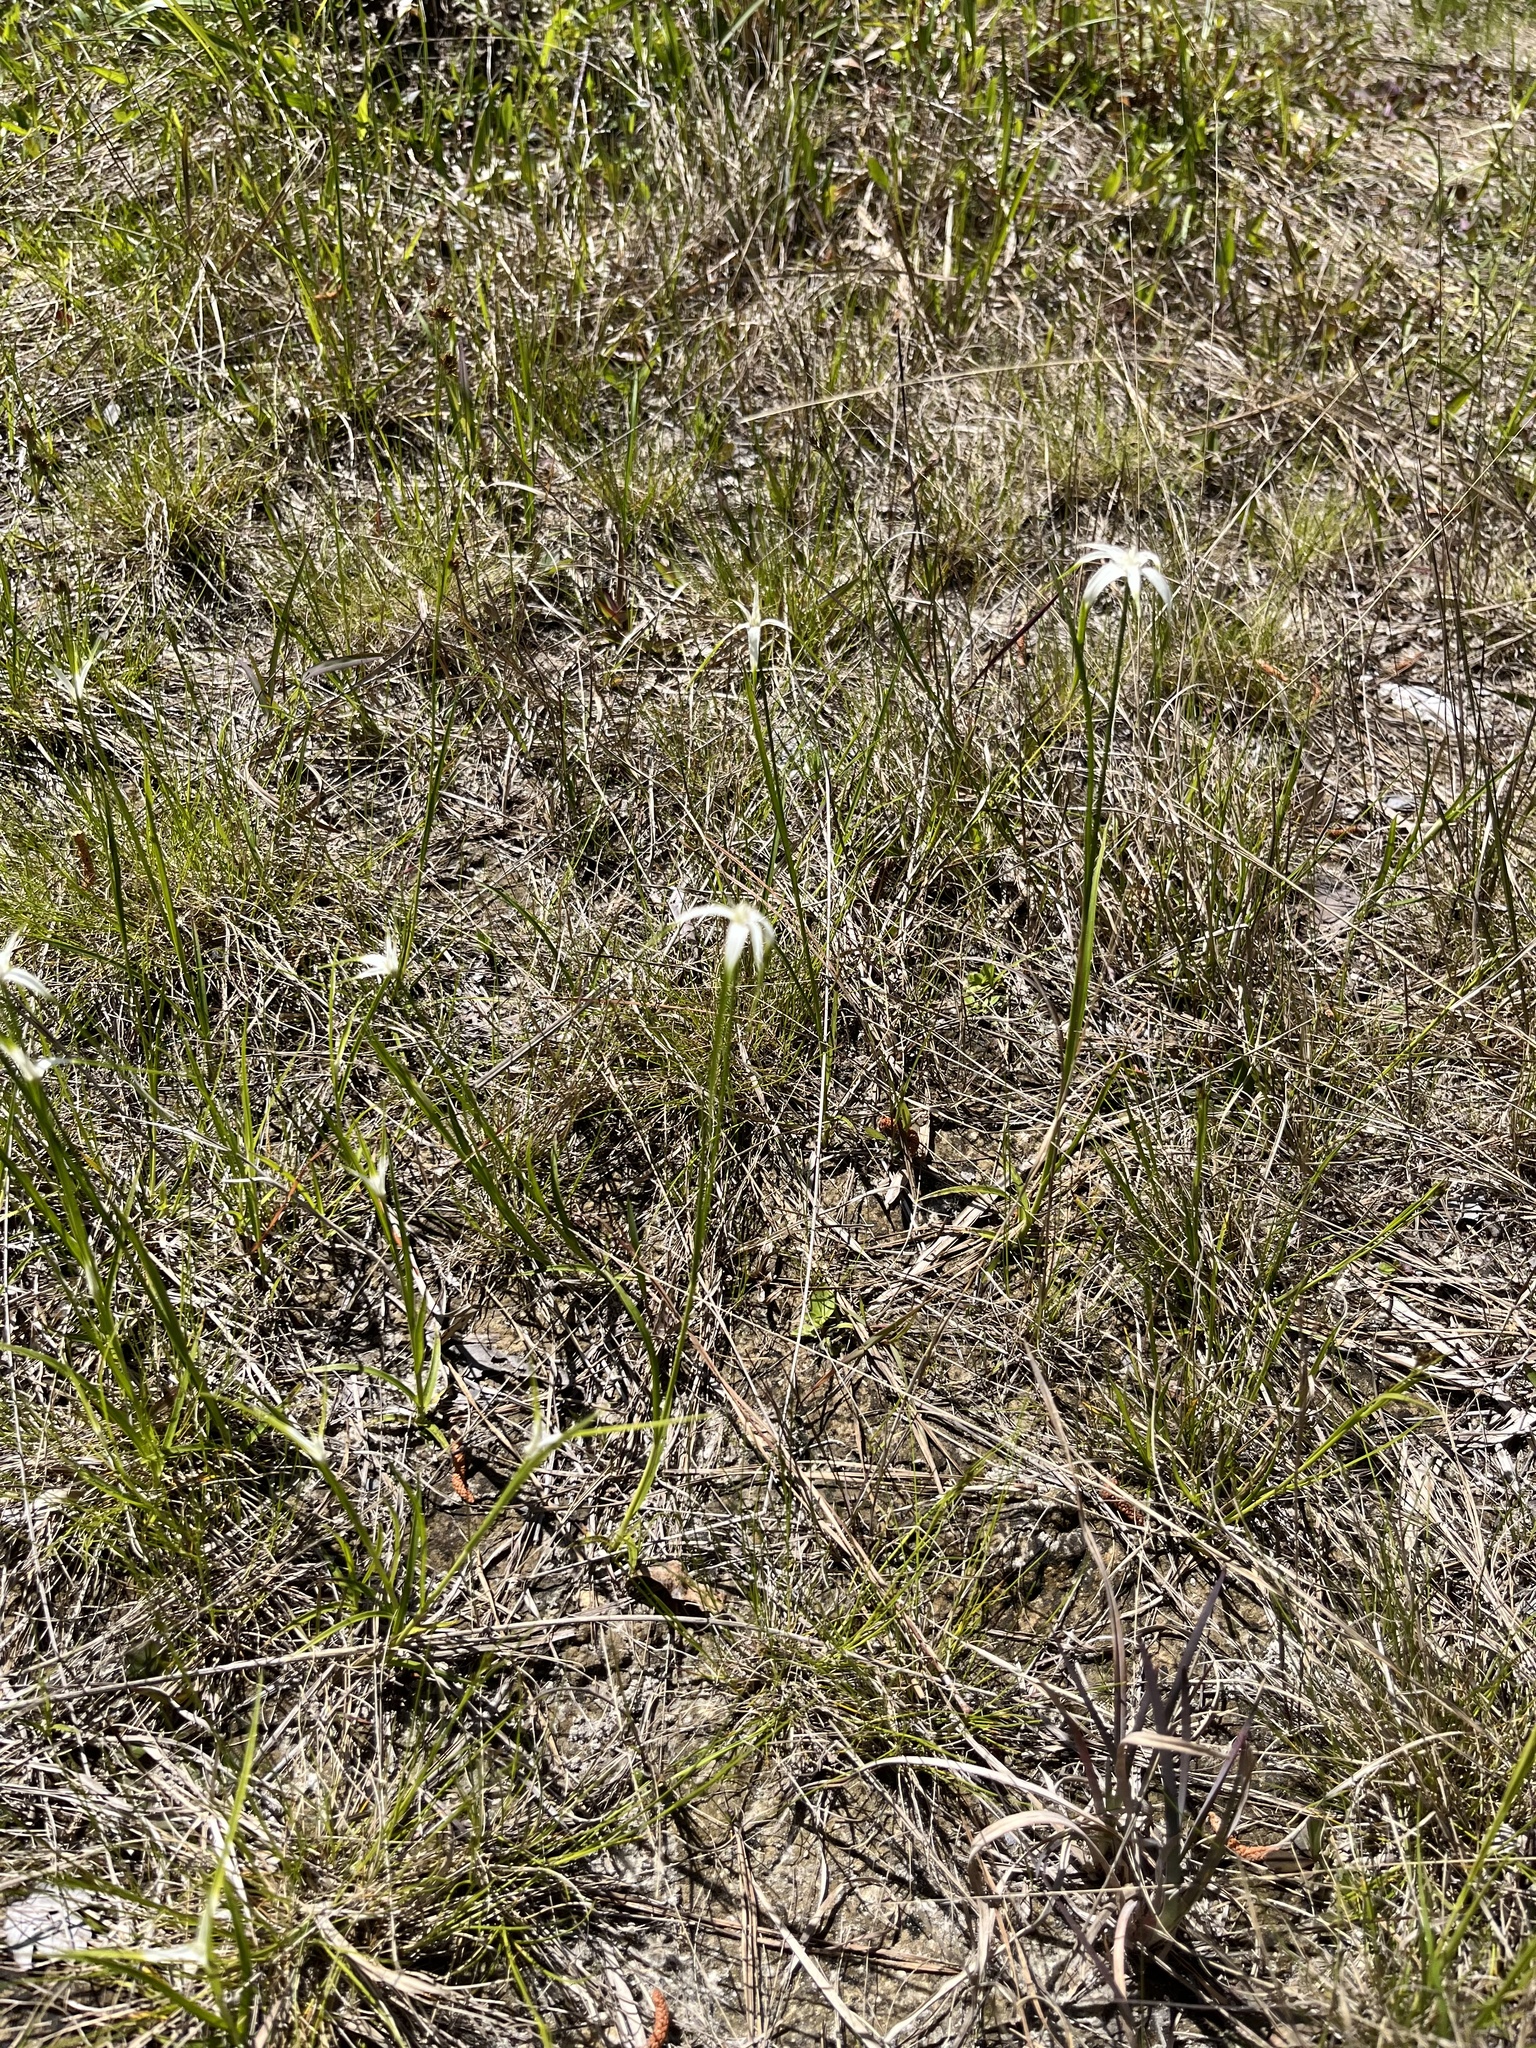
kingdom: Plantae
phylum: Tracheophyta
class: Liliopsida
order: Poales
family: Cyperaceae
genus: Rhynchospora
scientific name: Rhynchospora colorata
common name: Star sedge
